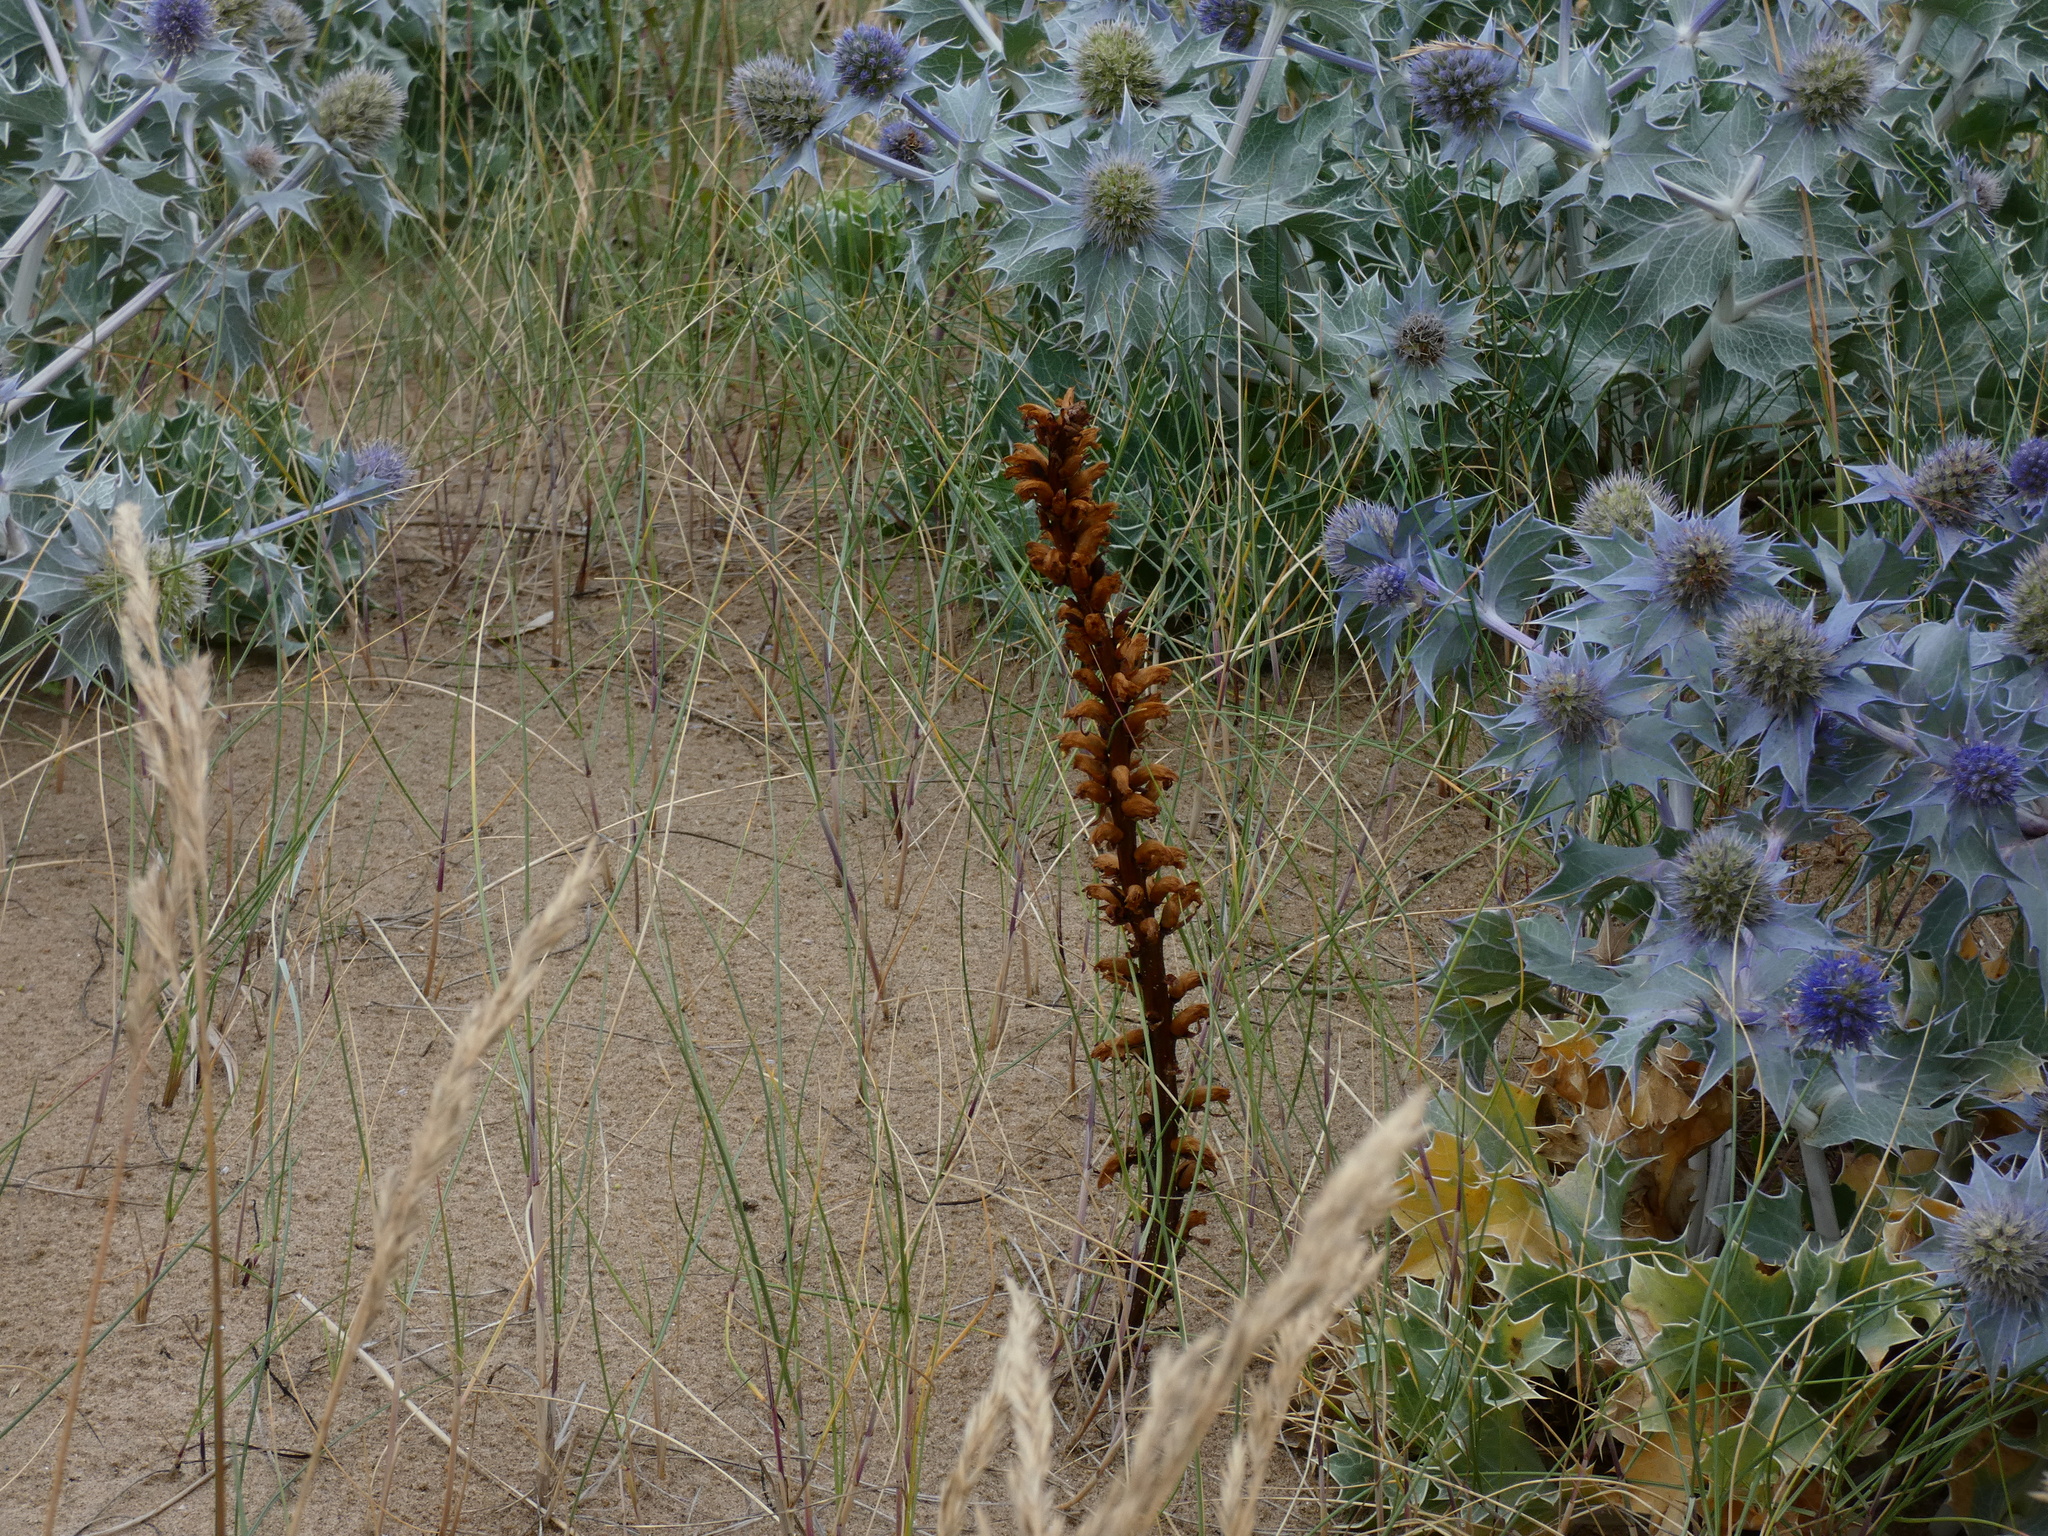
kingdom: Plantae
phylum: Tracheophyta
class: Magnoliopsida
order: Lamiales
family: Orobanchaceae
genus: Orobanche
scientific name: Orobanche minor
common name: Common broomrape
